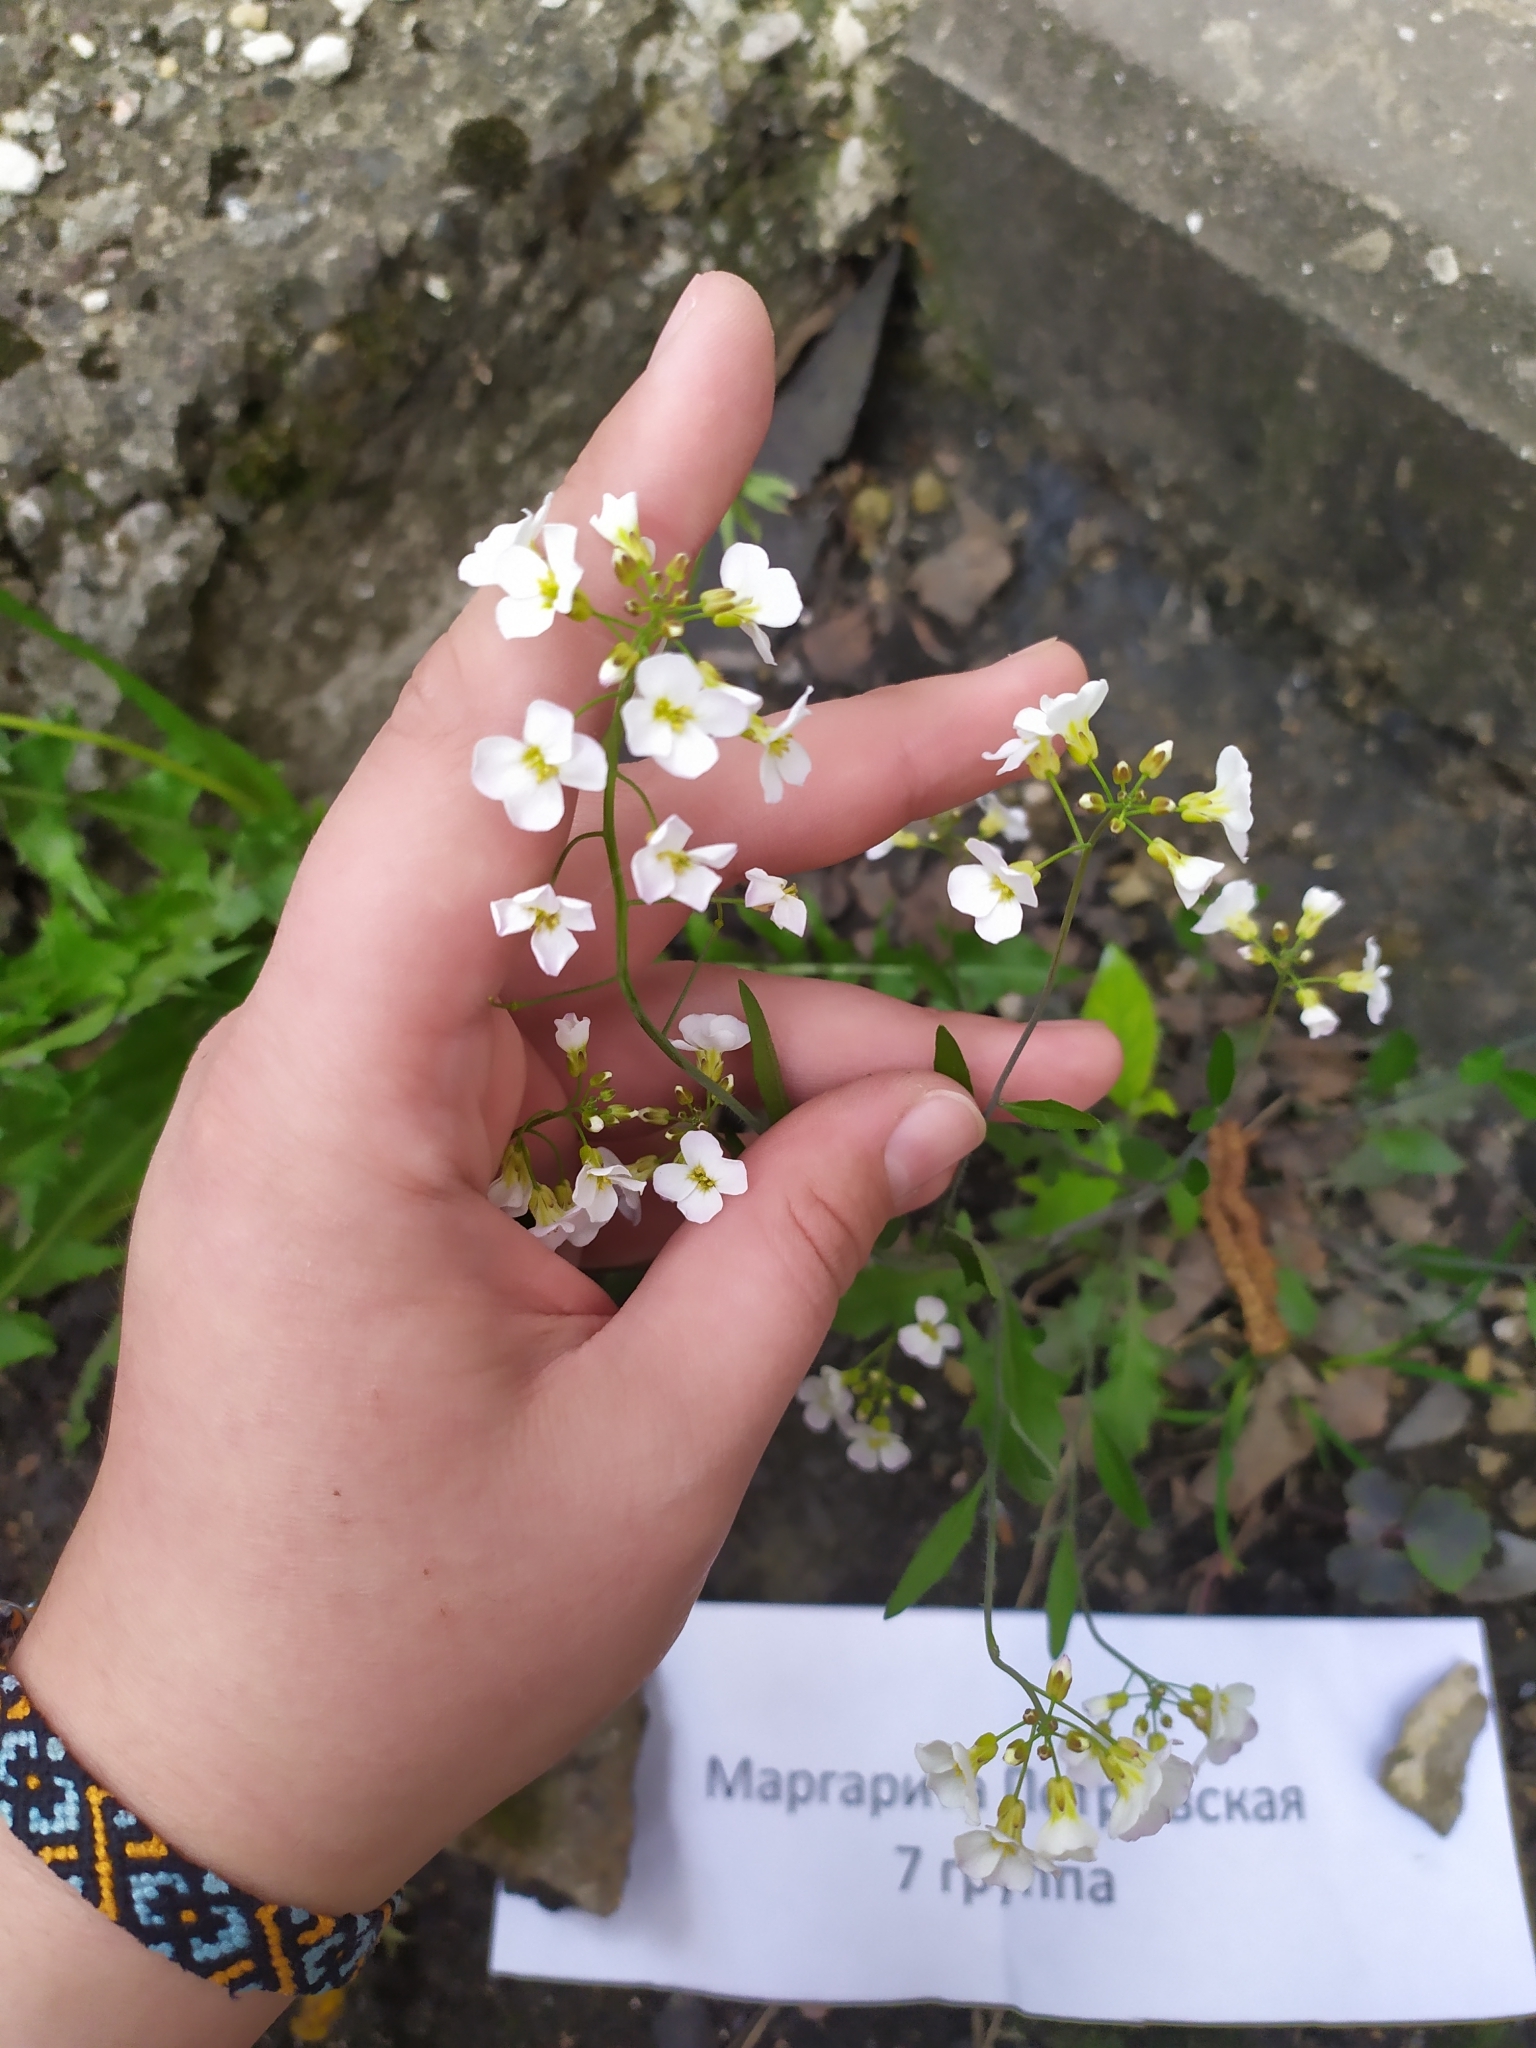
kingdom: Plantae
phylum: Tracheophyta
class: Magnoliopsida
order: Brassicales
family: Brassicaceae
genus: Arabidopsis
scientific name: Arabidopsis arenosa
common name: Sand rock-cress
